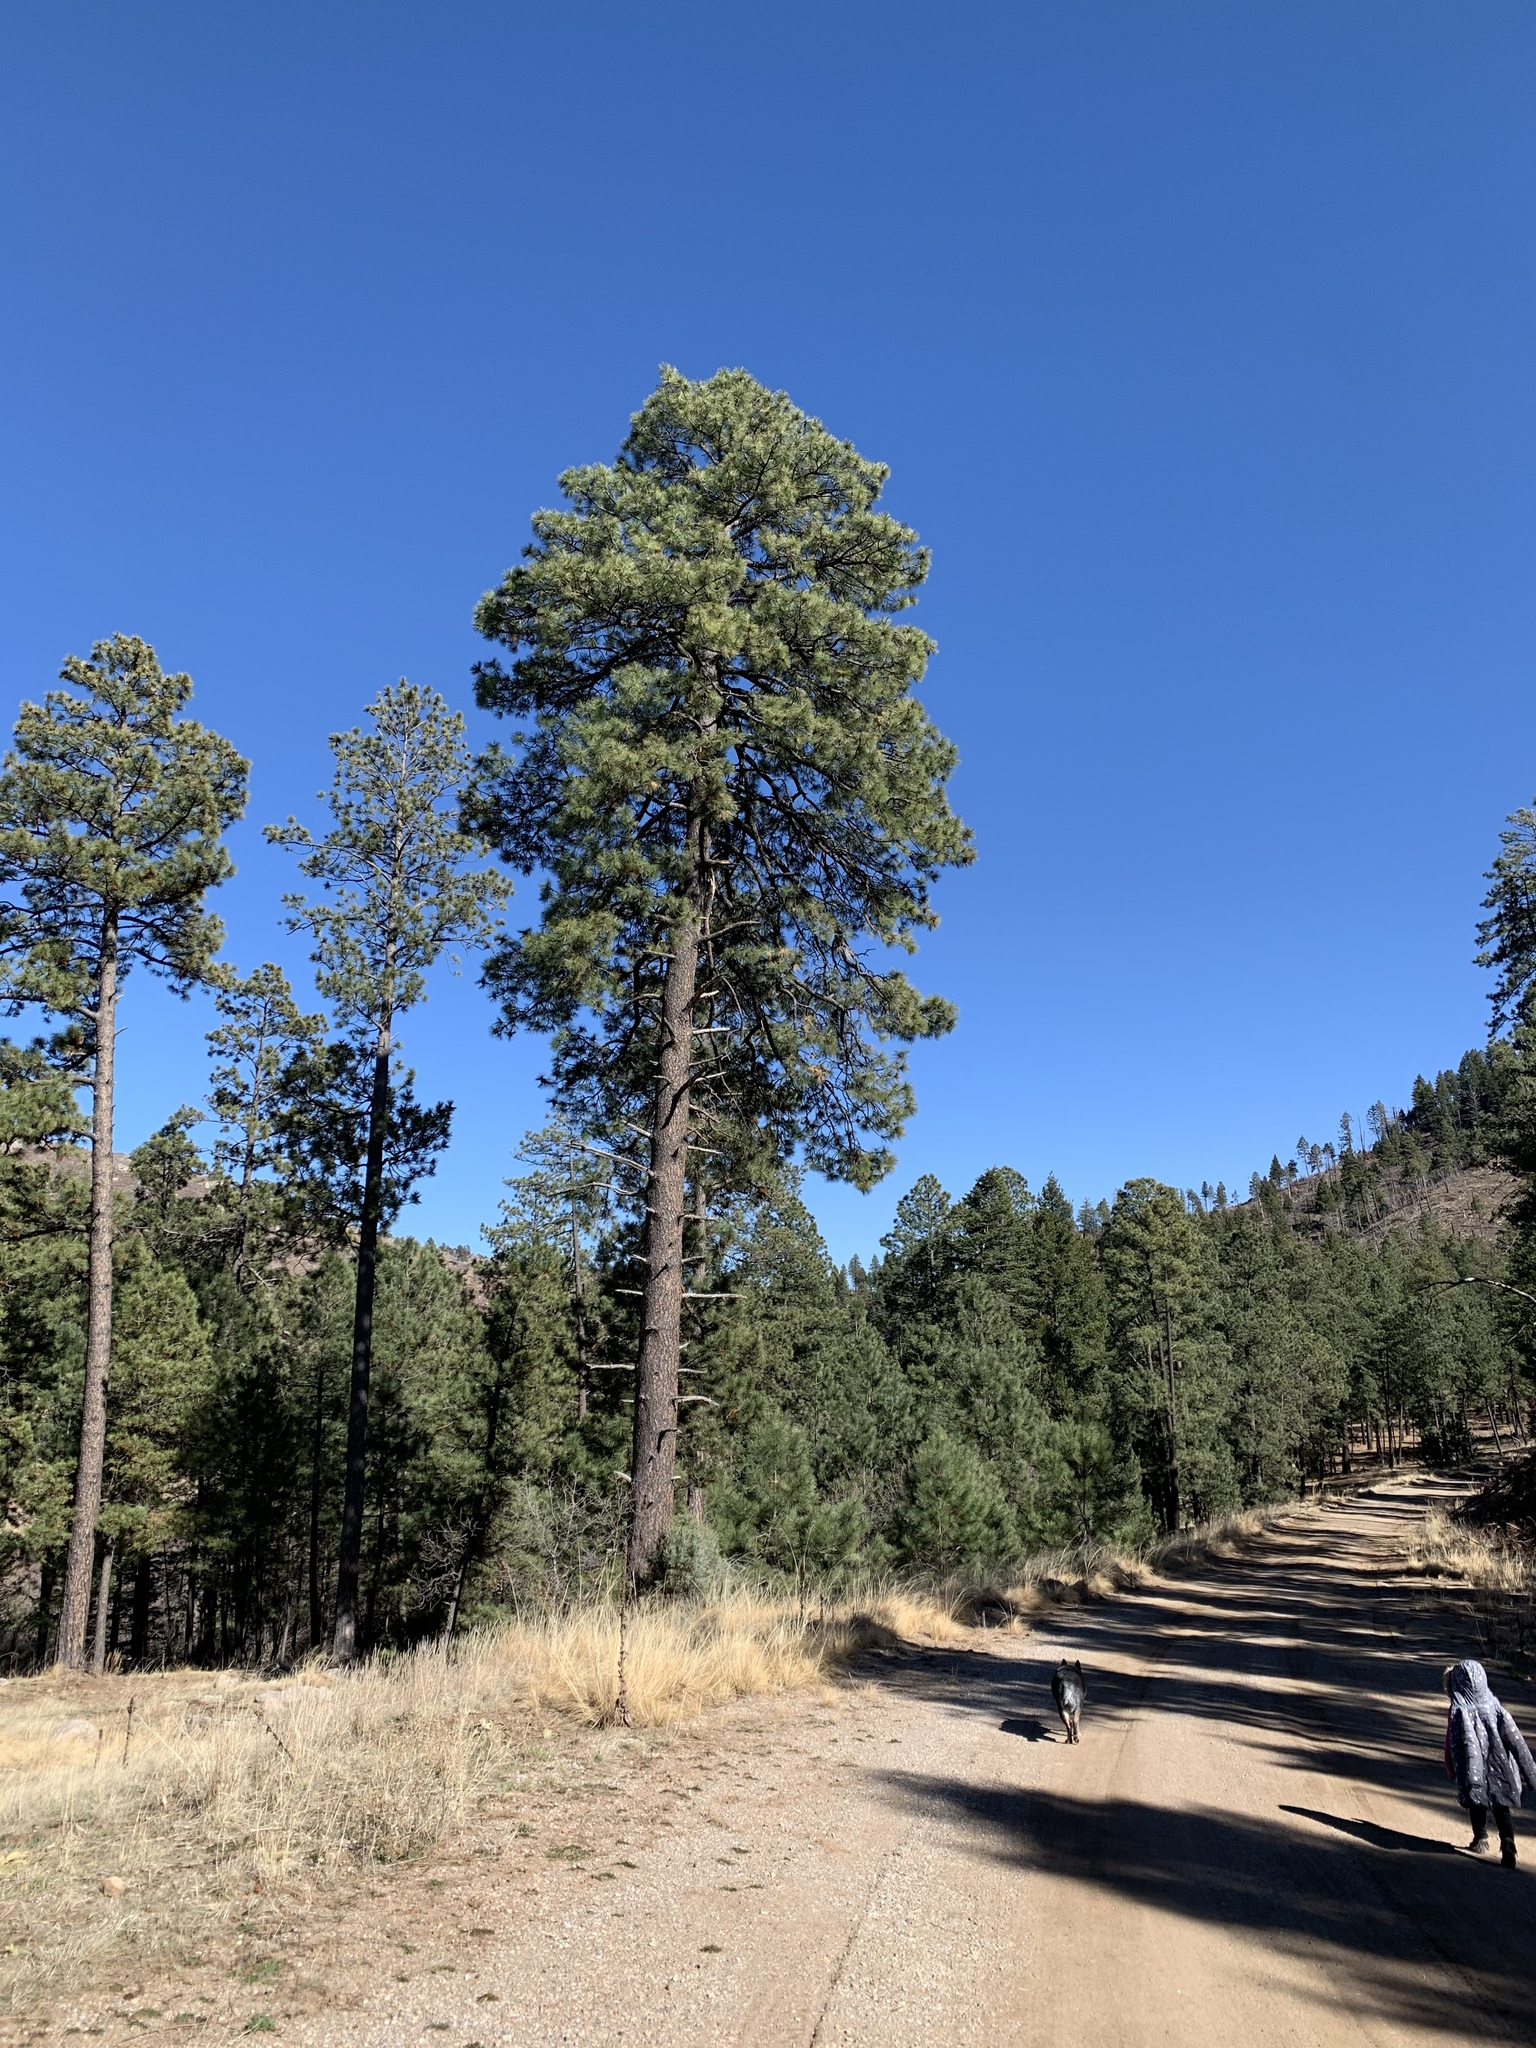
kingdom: Plantae
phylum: Tracheophyta
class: Pinopsida
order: Pinales
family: Pinaceae
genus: Pinus
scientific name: Pinus ponderosa
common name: Western yellow-pine
